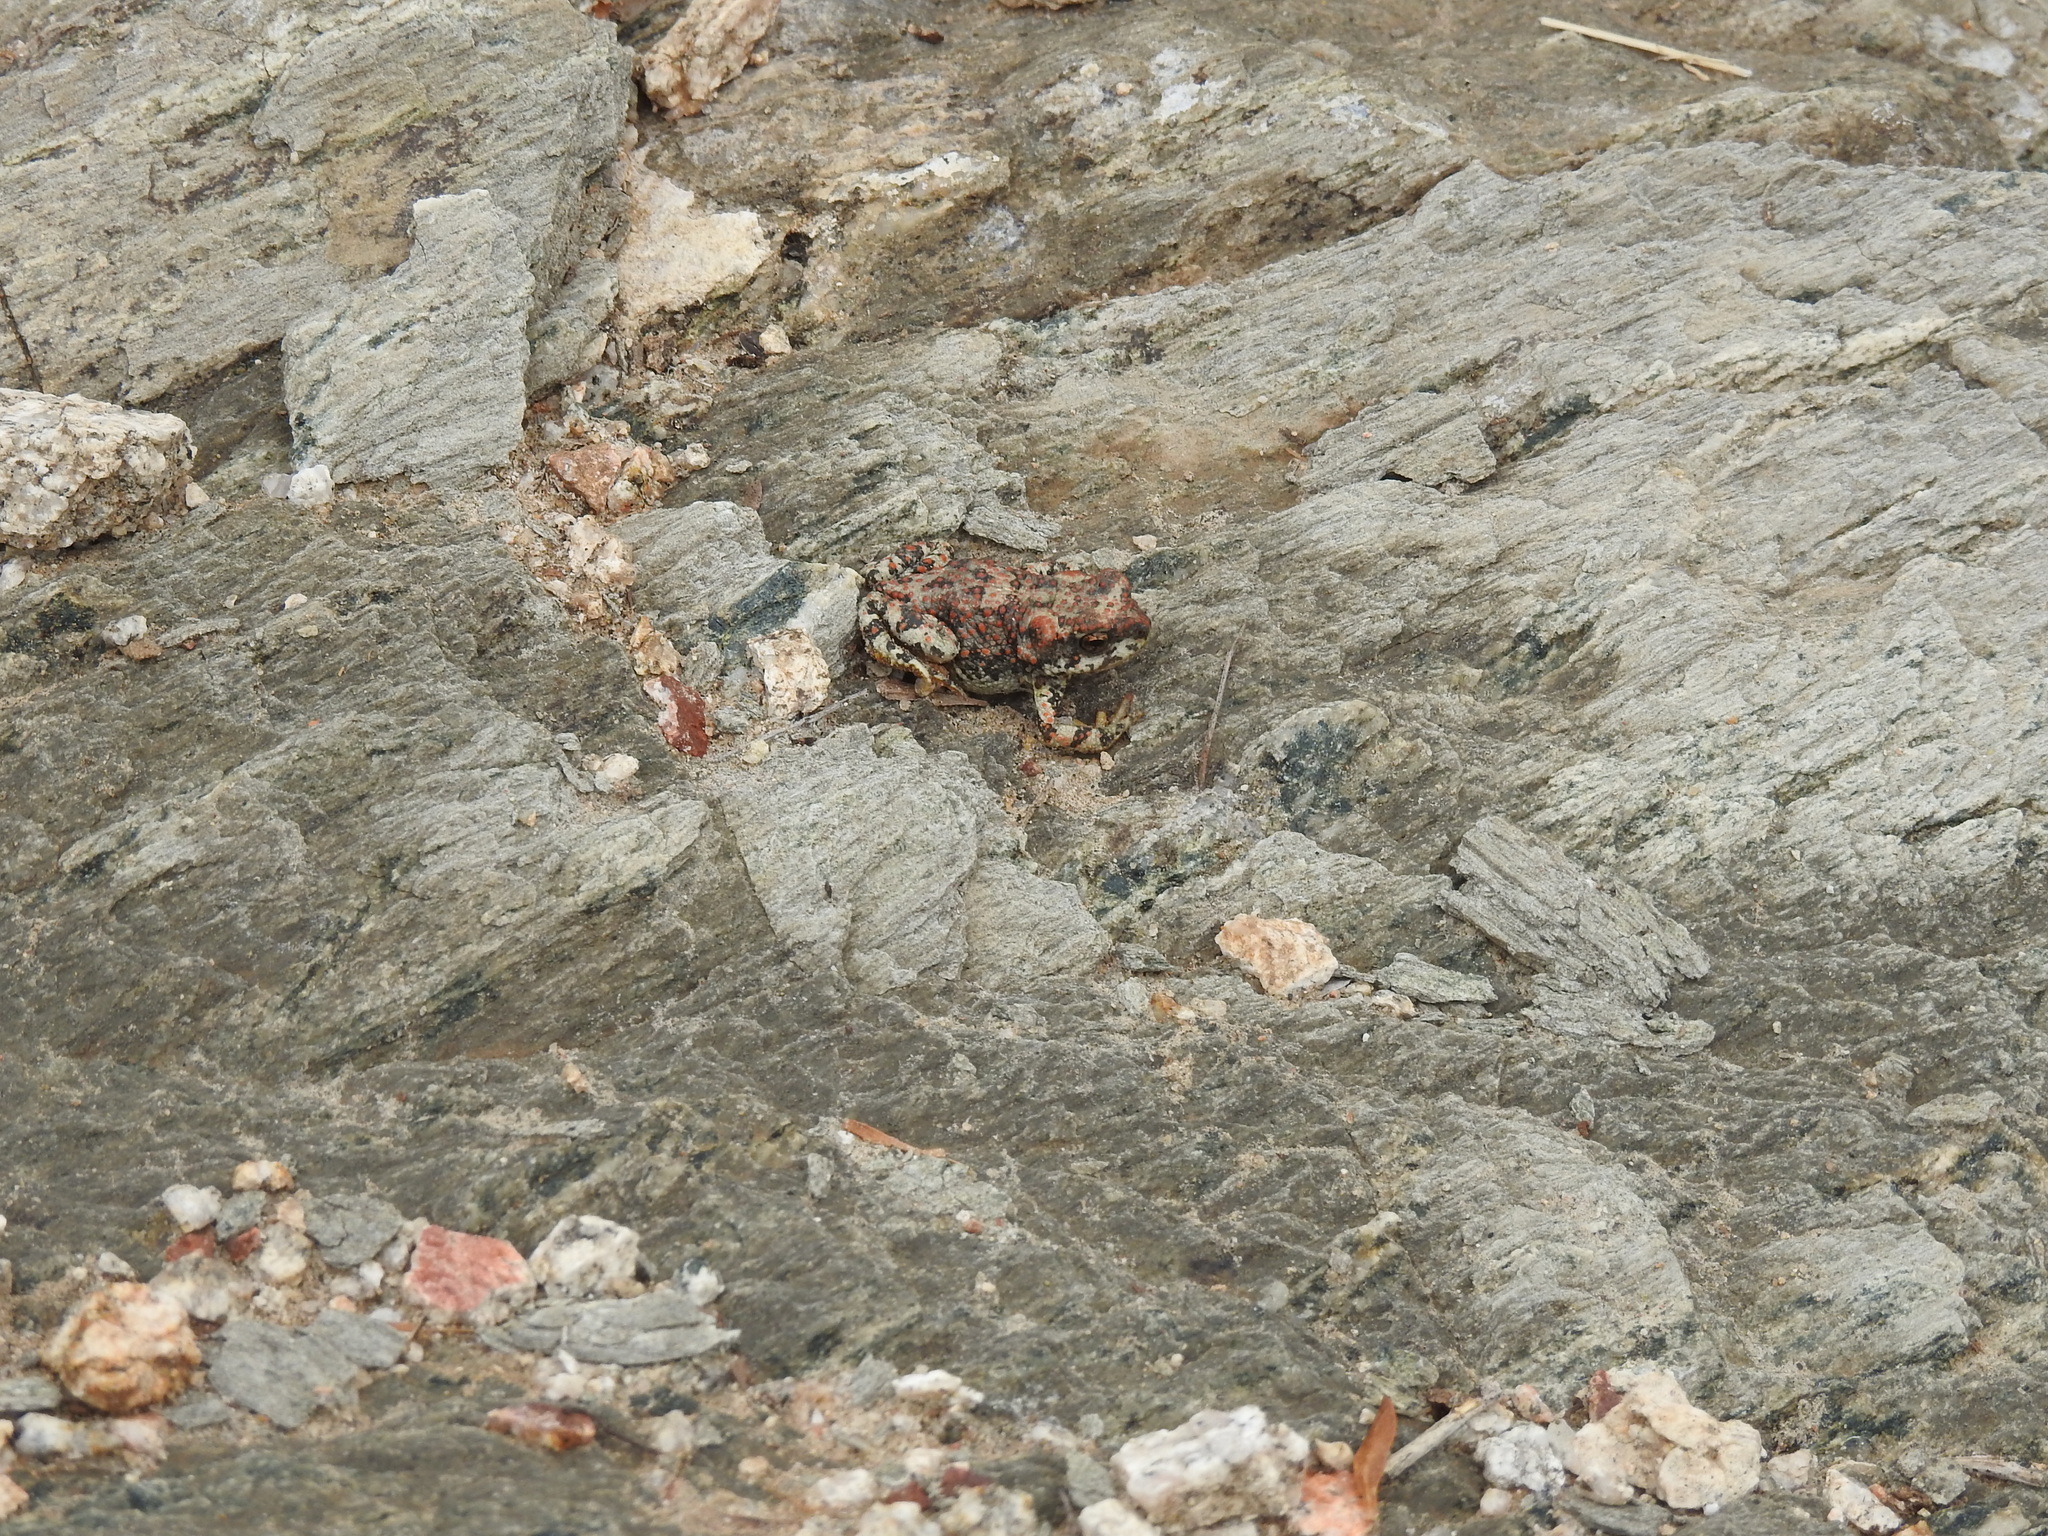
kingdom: Animalia
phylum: Chordata
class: Amphibia
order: Anura
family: Bufonidae
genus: Anaxyrus
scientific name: Anaxyrus punctatus
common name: Red-spotted toad
